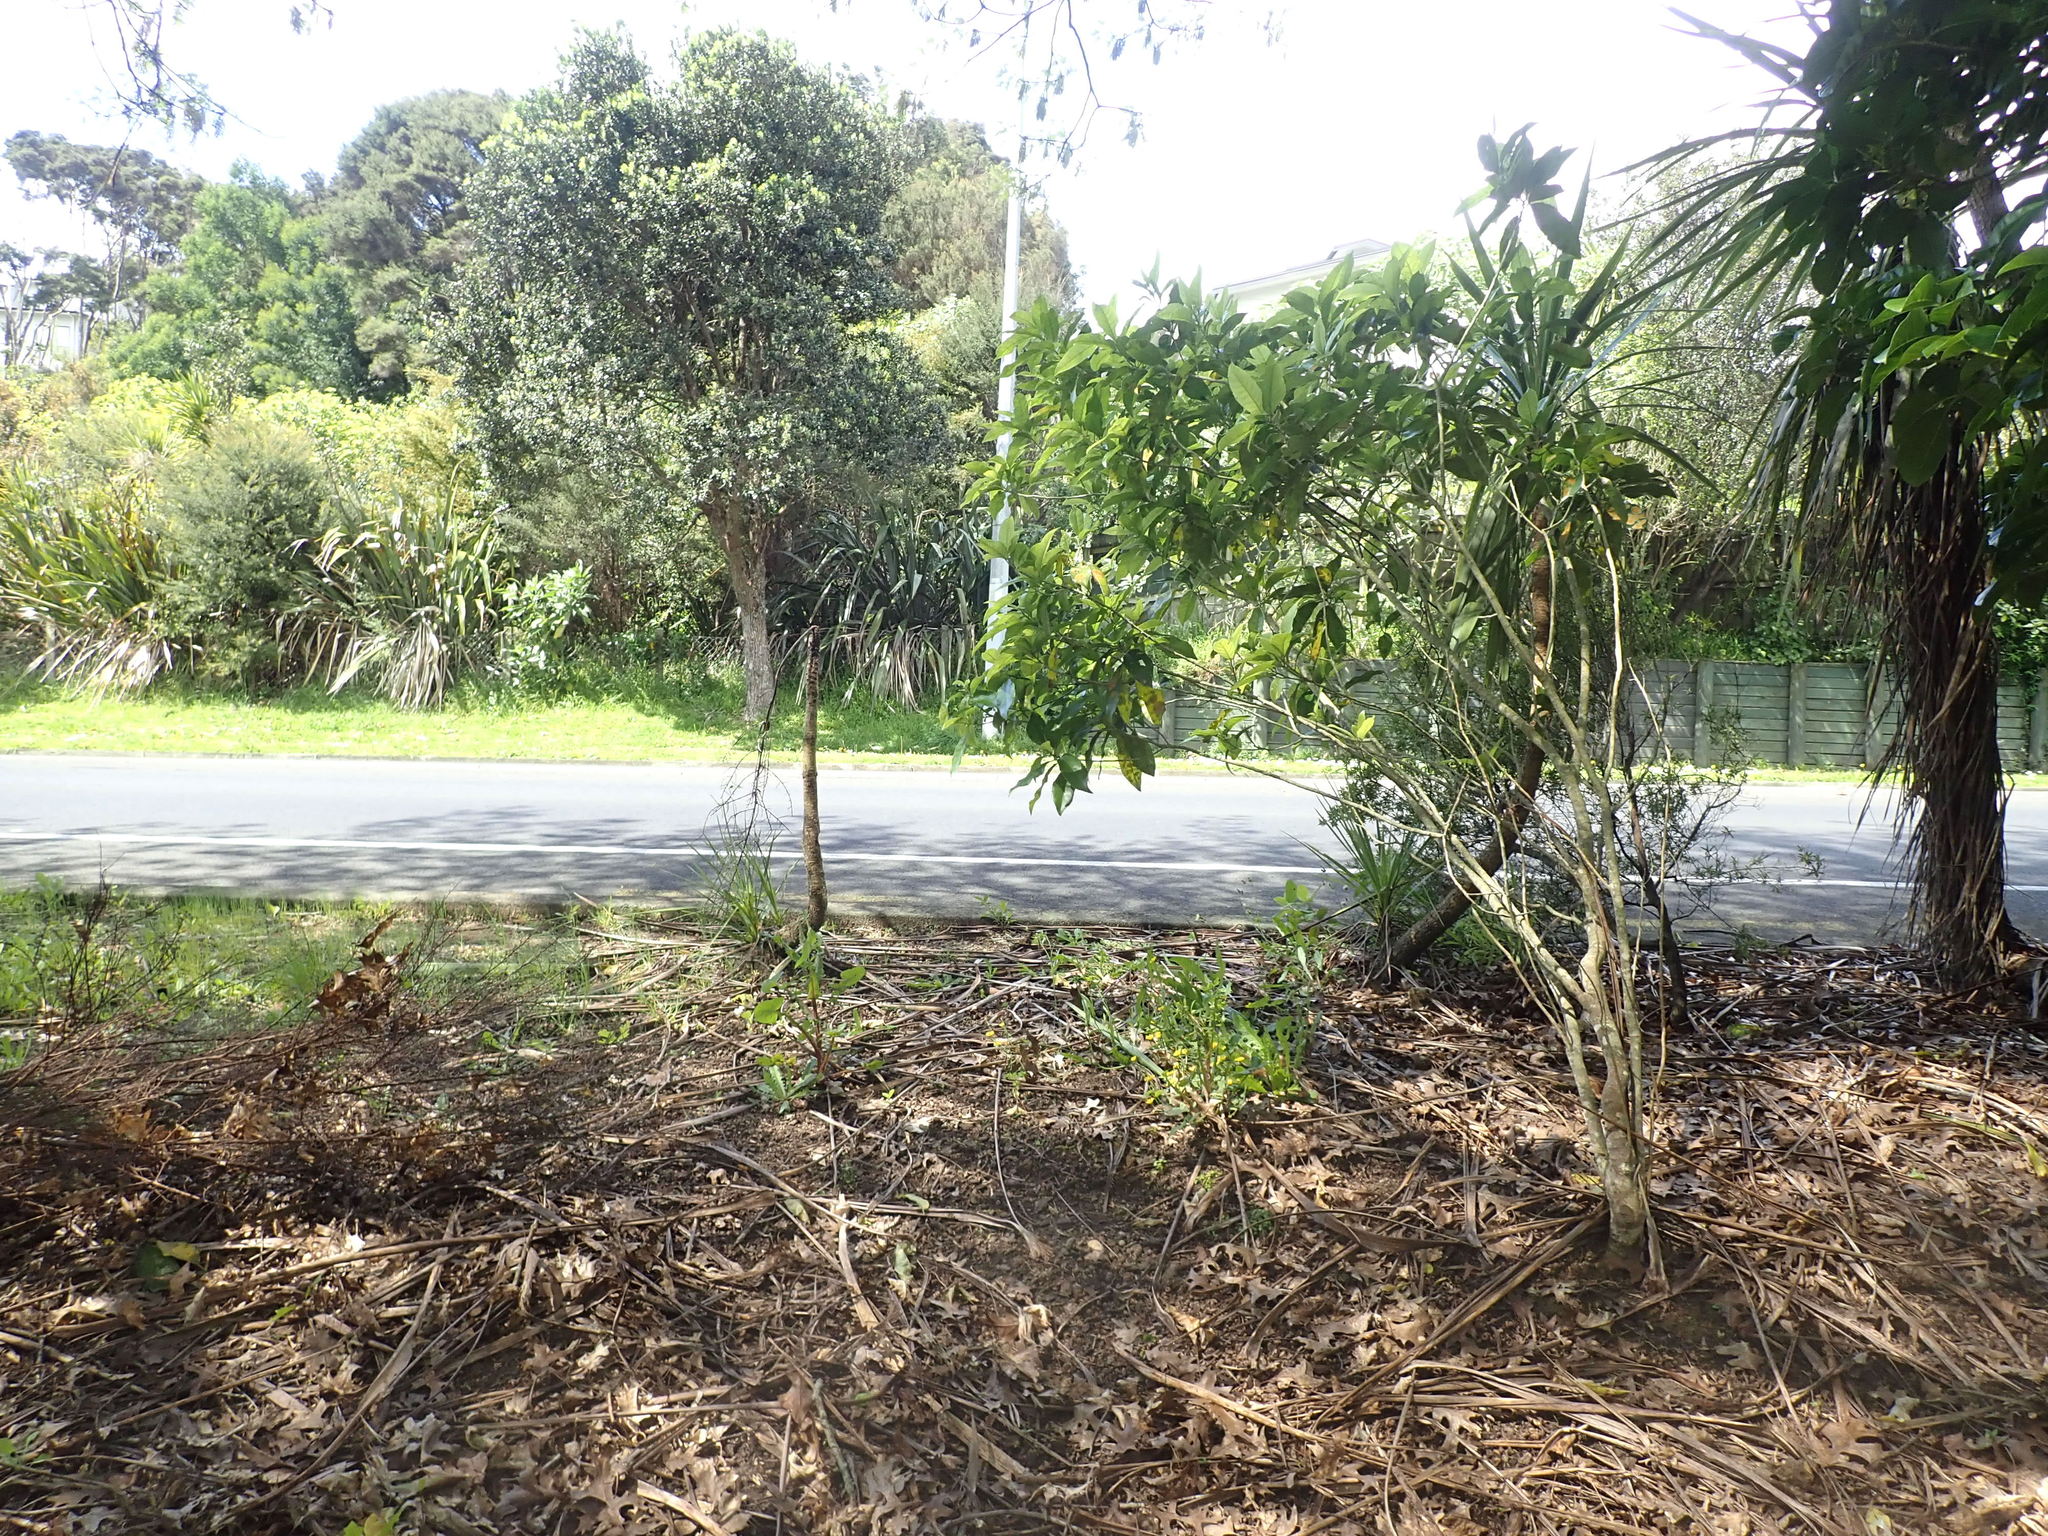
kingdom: Plantae
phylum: Tracheophyta
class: Magnoliopsida
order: Malpighiales
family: Violaceae
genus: Melicytus
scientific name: Melicytus ramiflorus
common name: Mahoe
